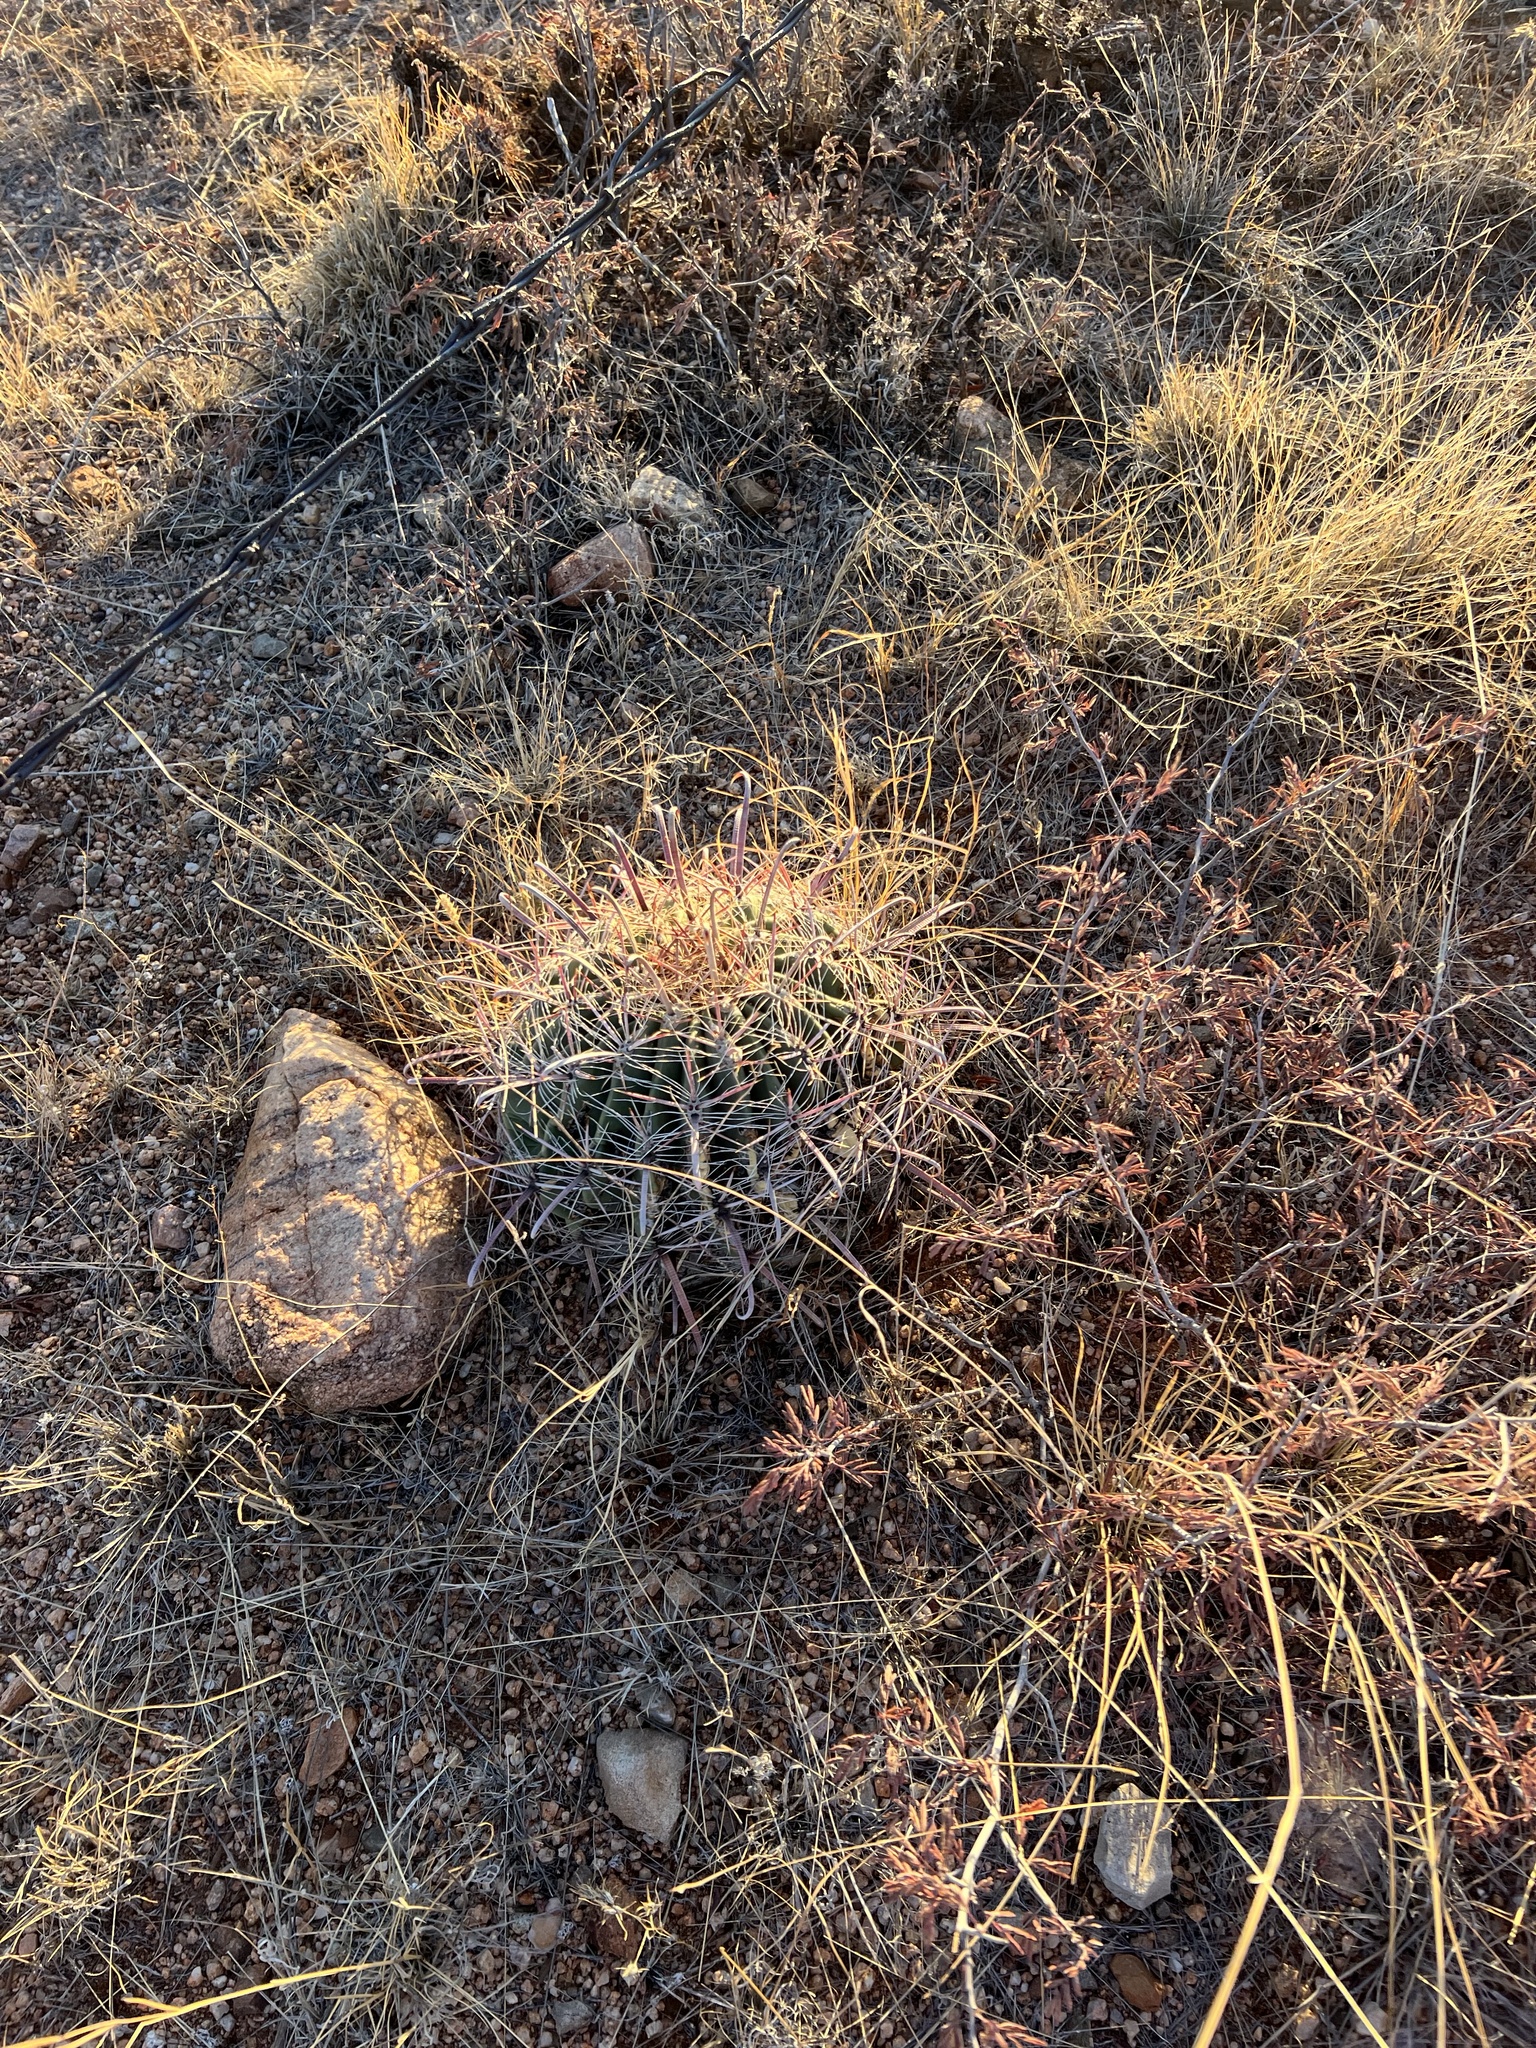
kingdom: Plantae
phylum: Tracheophyta
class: Magnoliopsida
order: Caryophyllales
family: Cactaceae
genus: Ferocactus
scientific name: Ferocactus wislizeni
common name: Candy barrel cactus
